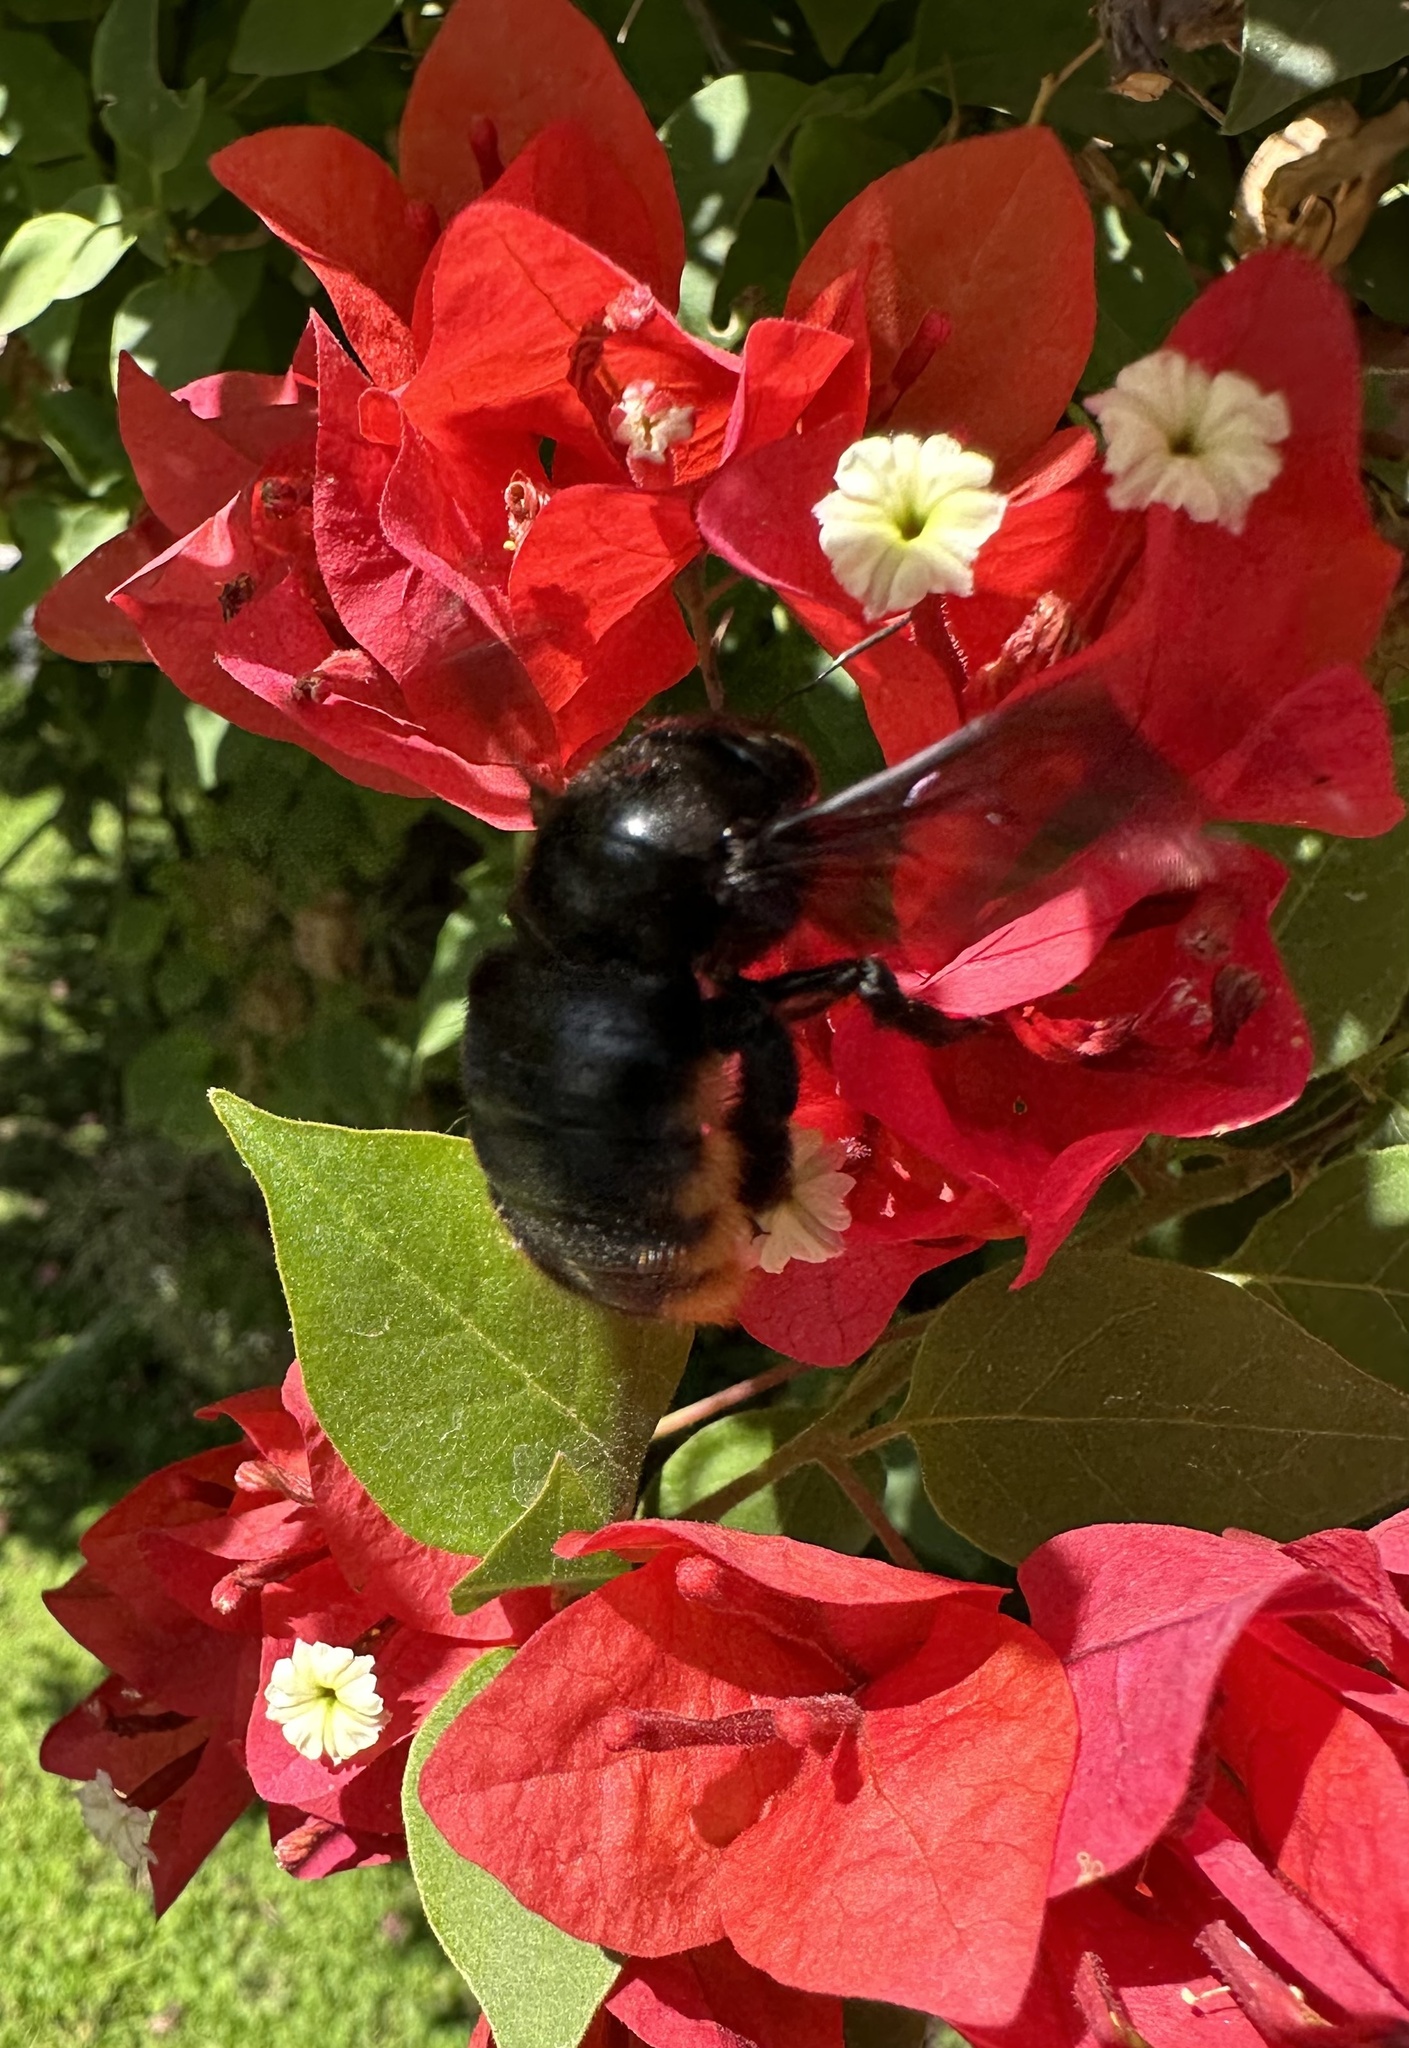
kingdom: Animalia
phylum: Arthropoda
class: Insecta
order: Hymenoptera
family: Apidae
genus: Xylocopa
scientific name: Xylocopa augusti
